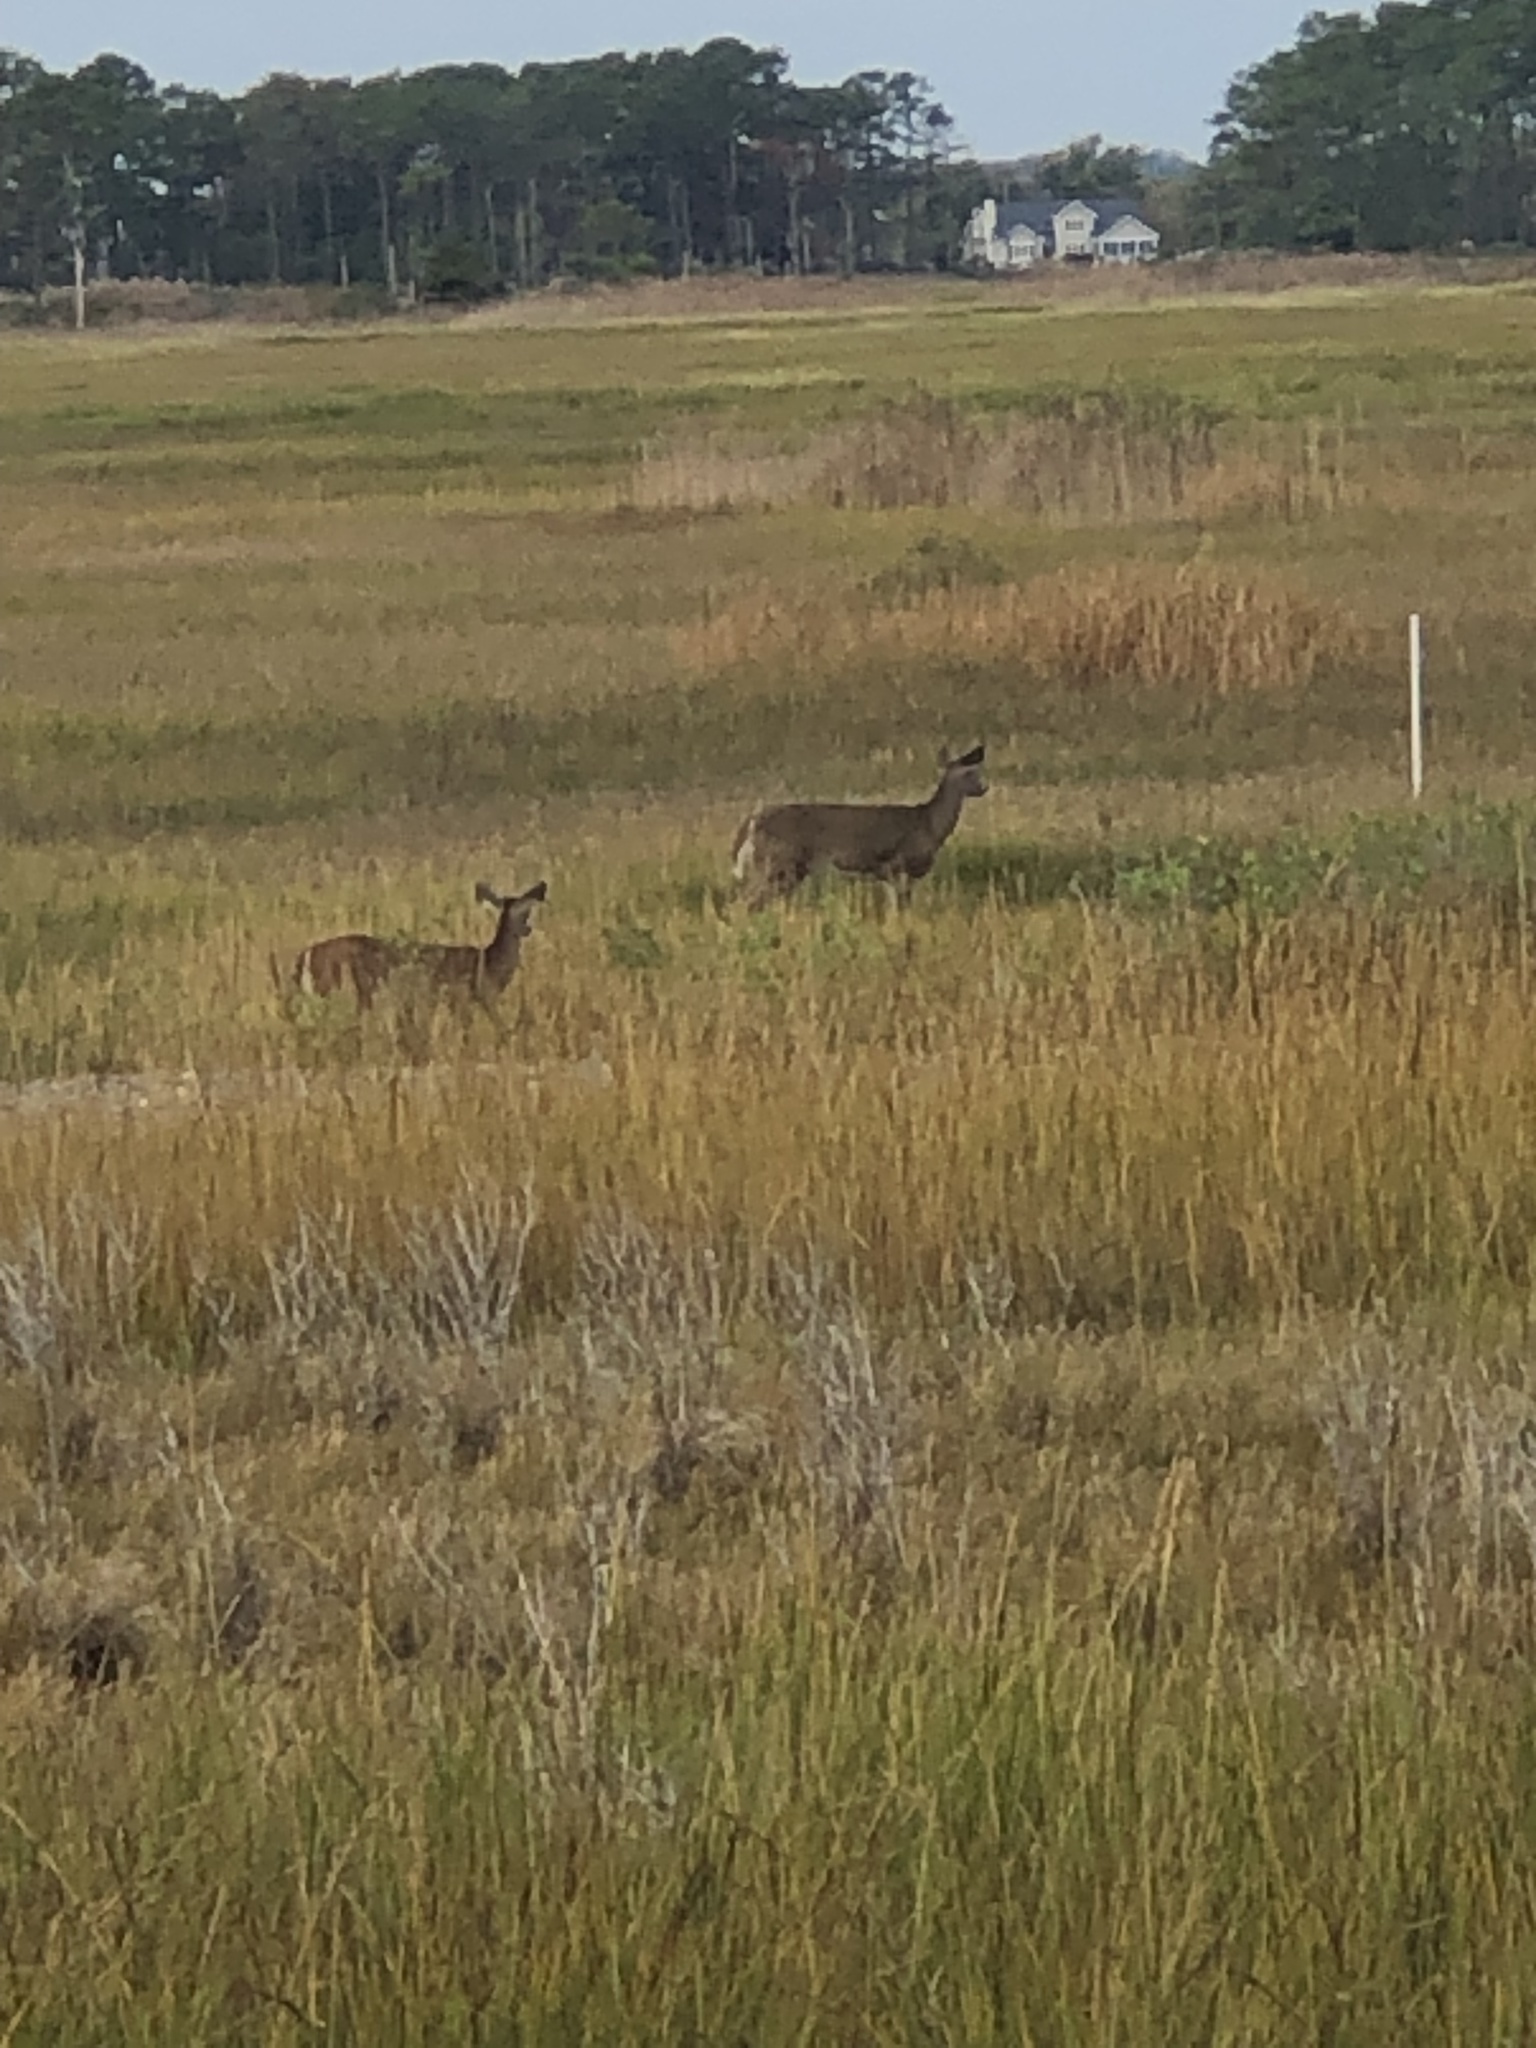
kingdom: Animalia
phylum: Chordata
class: Mammalia
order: Artiodactyla
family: Cervidae
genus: Odocoileus
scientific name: Odocoileus virginianus
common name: White-tailed deer
